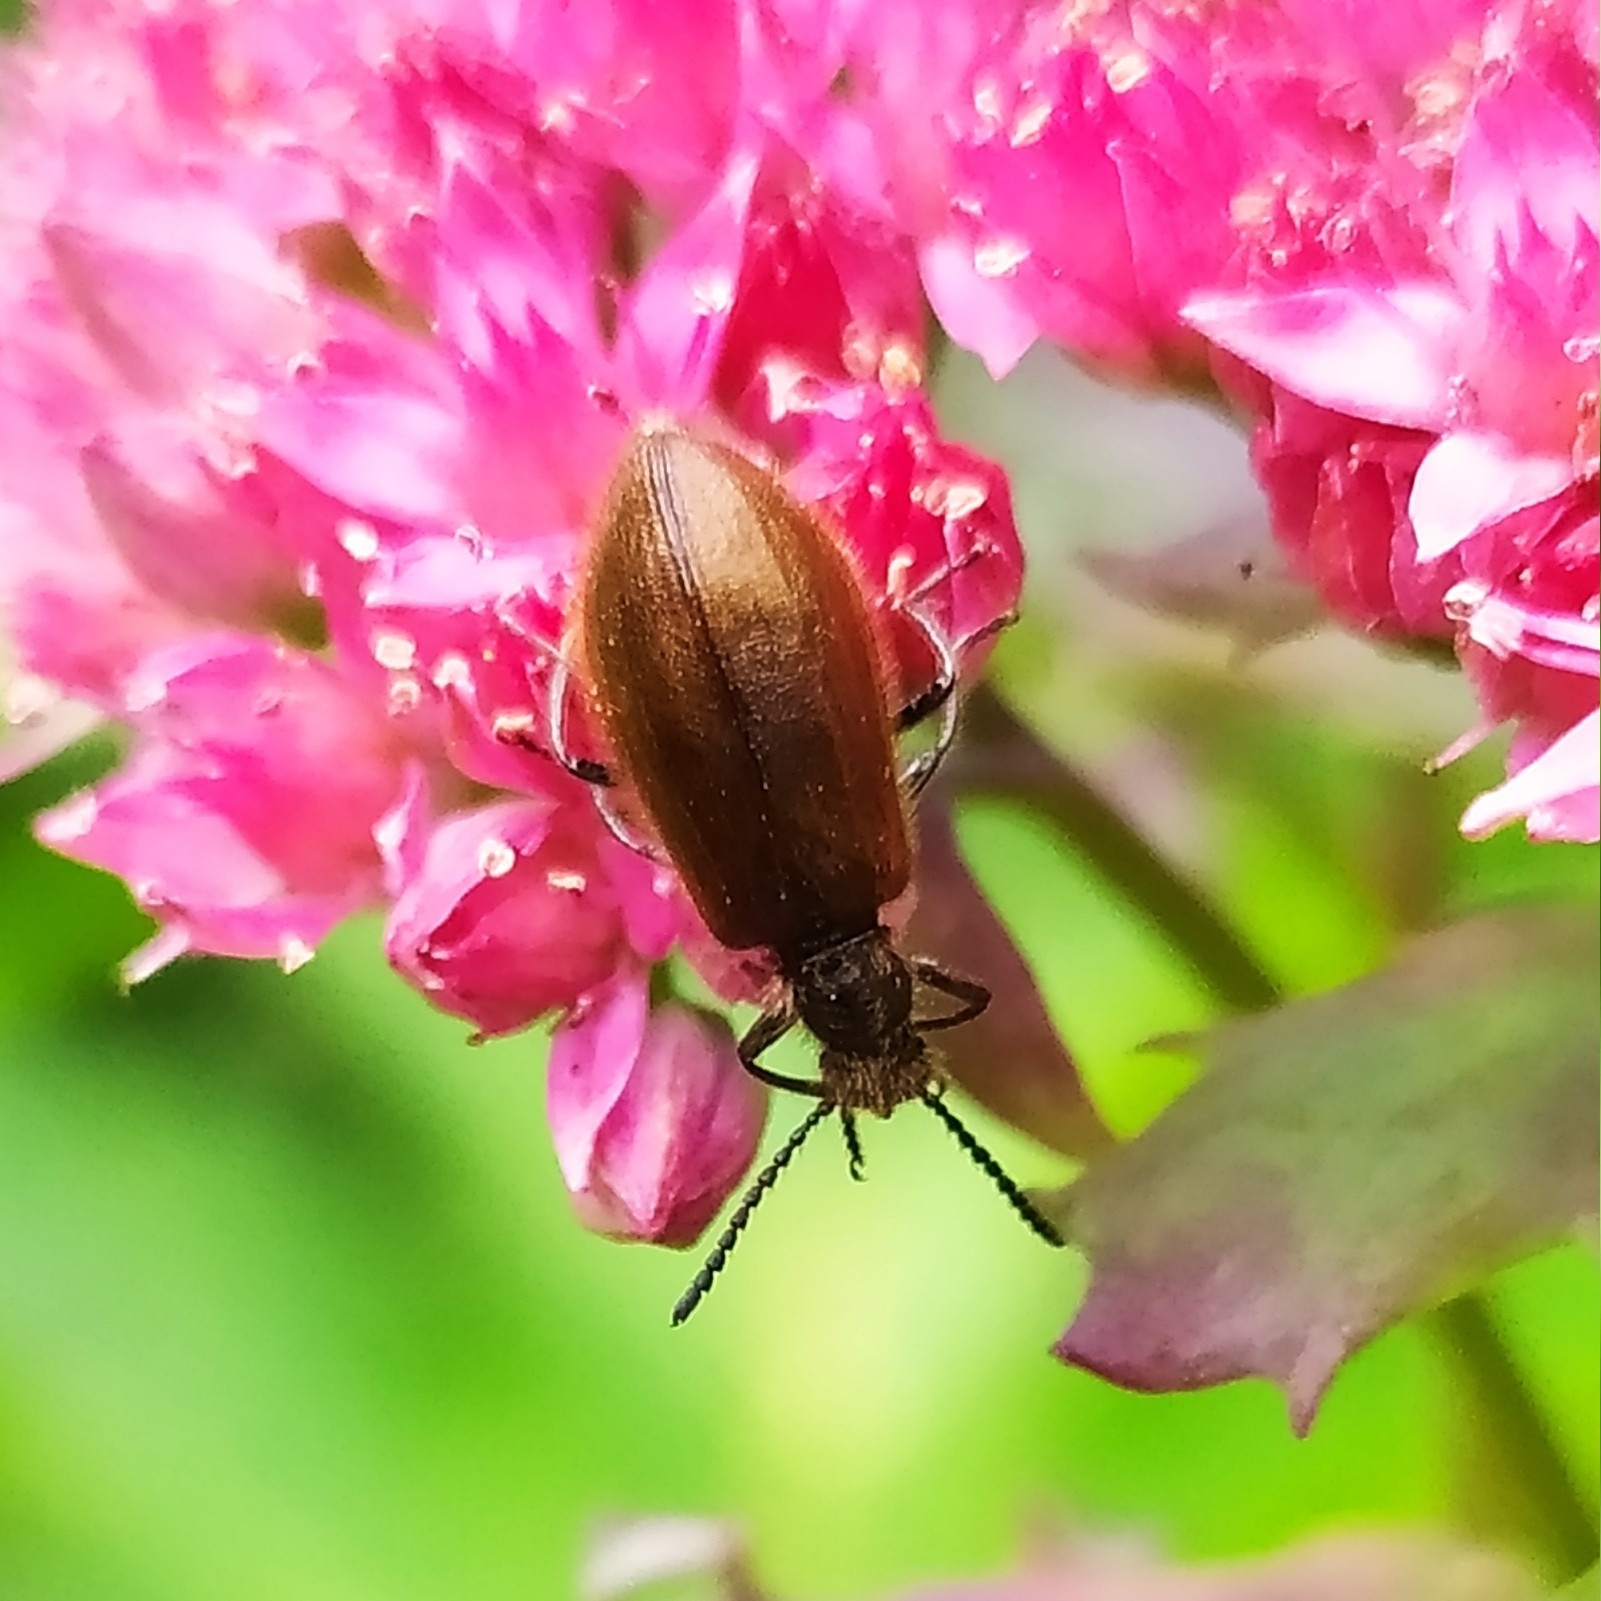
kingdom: Animalia
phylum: Arthropoda
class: Insecta
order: Coleoptera
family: Tenebrionidae
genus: Lagria
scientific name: Lagria hirta
